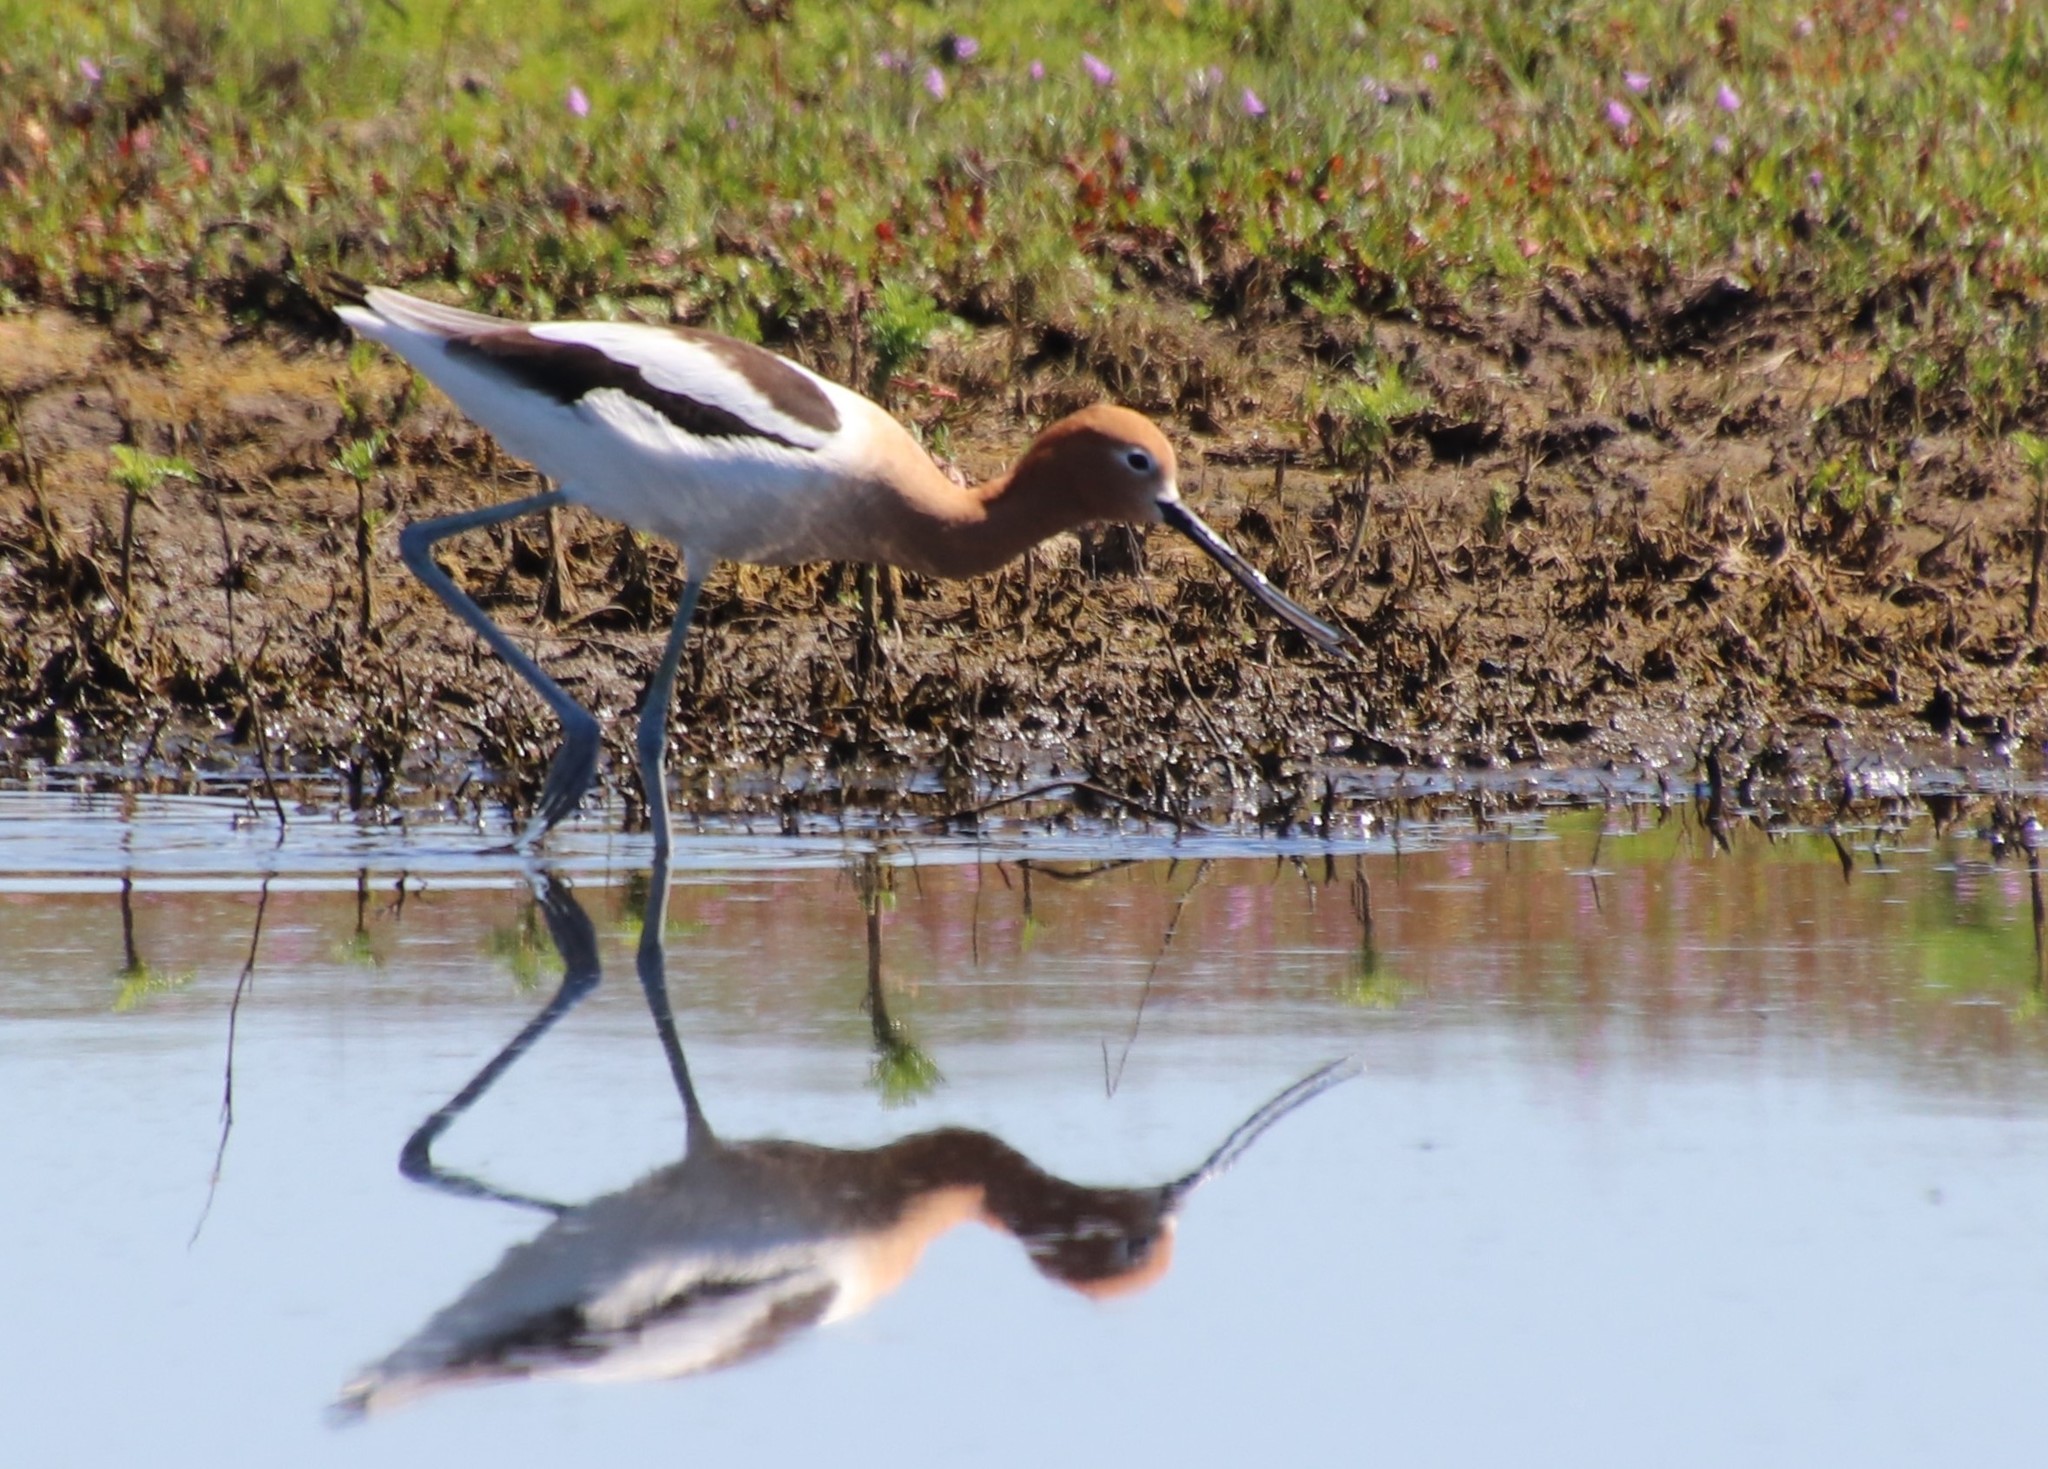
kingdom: Animalia
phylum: Chordata
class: Aves
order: Charadriiformes
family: Recurvirostridae
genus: Recurvirostra
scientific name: Recurvirostra americana
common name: American avocet
